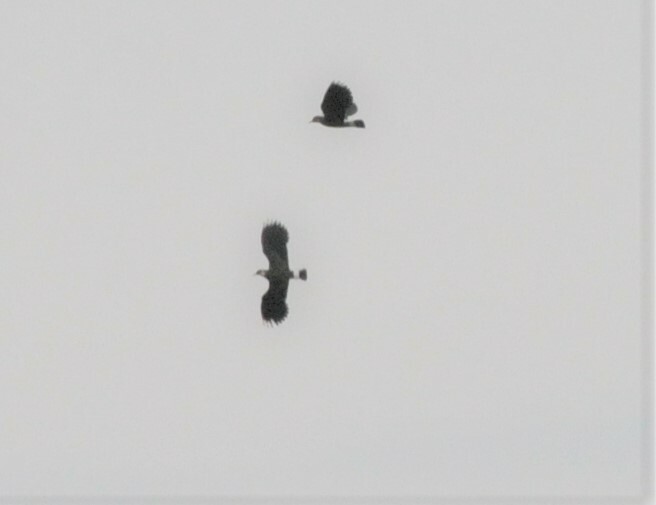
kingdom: Animalia
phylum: Chordata
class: Aves
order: Charadriiformes
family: Charadriidae
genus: Vanellus
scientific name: Vanellus vanellus
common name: Northern lapwing
